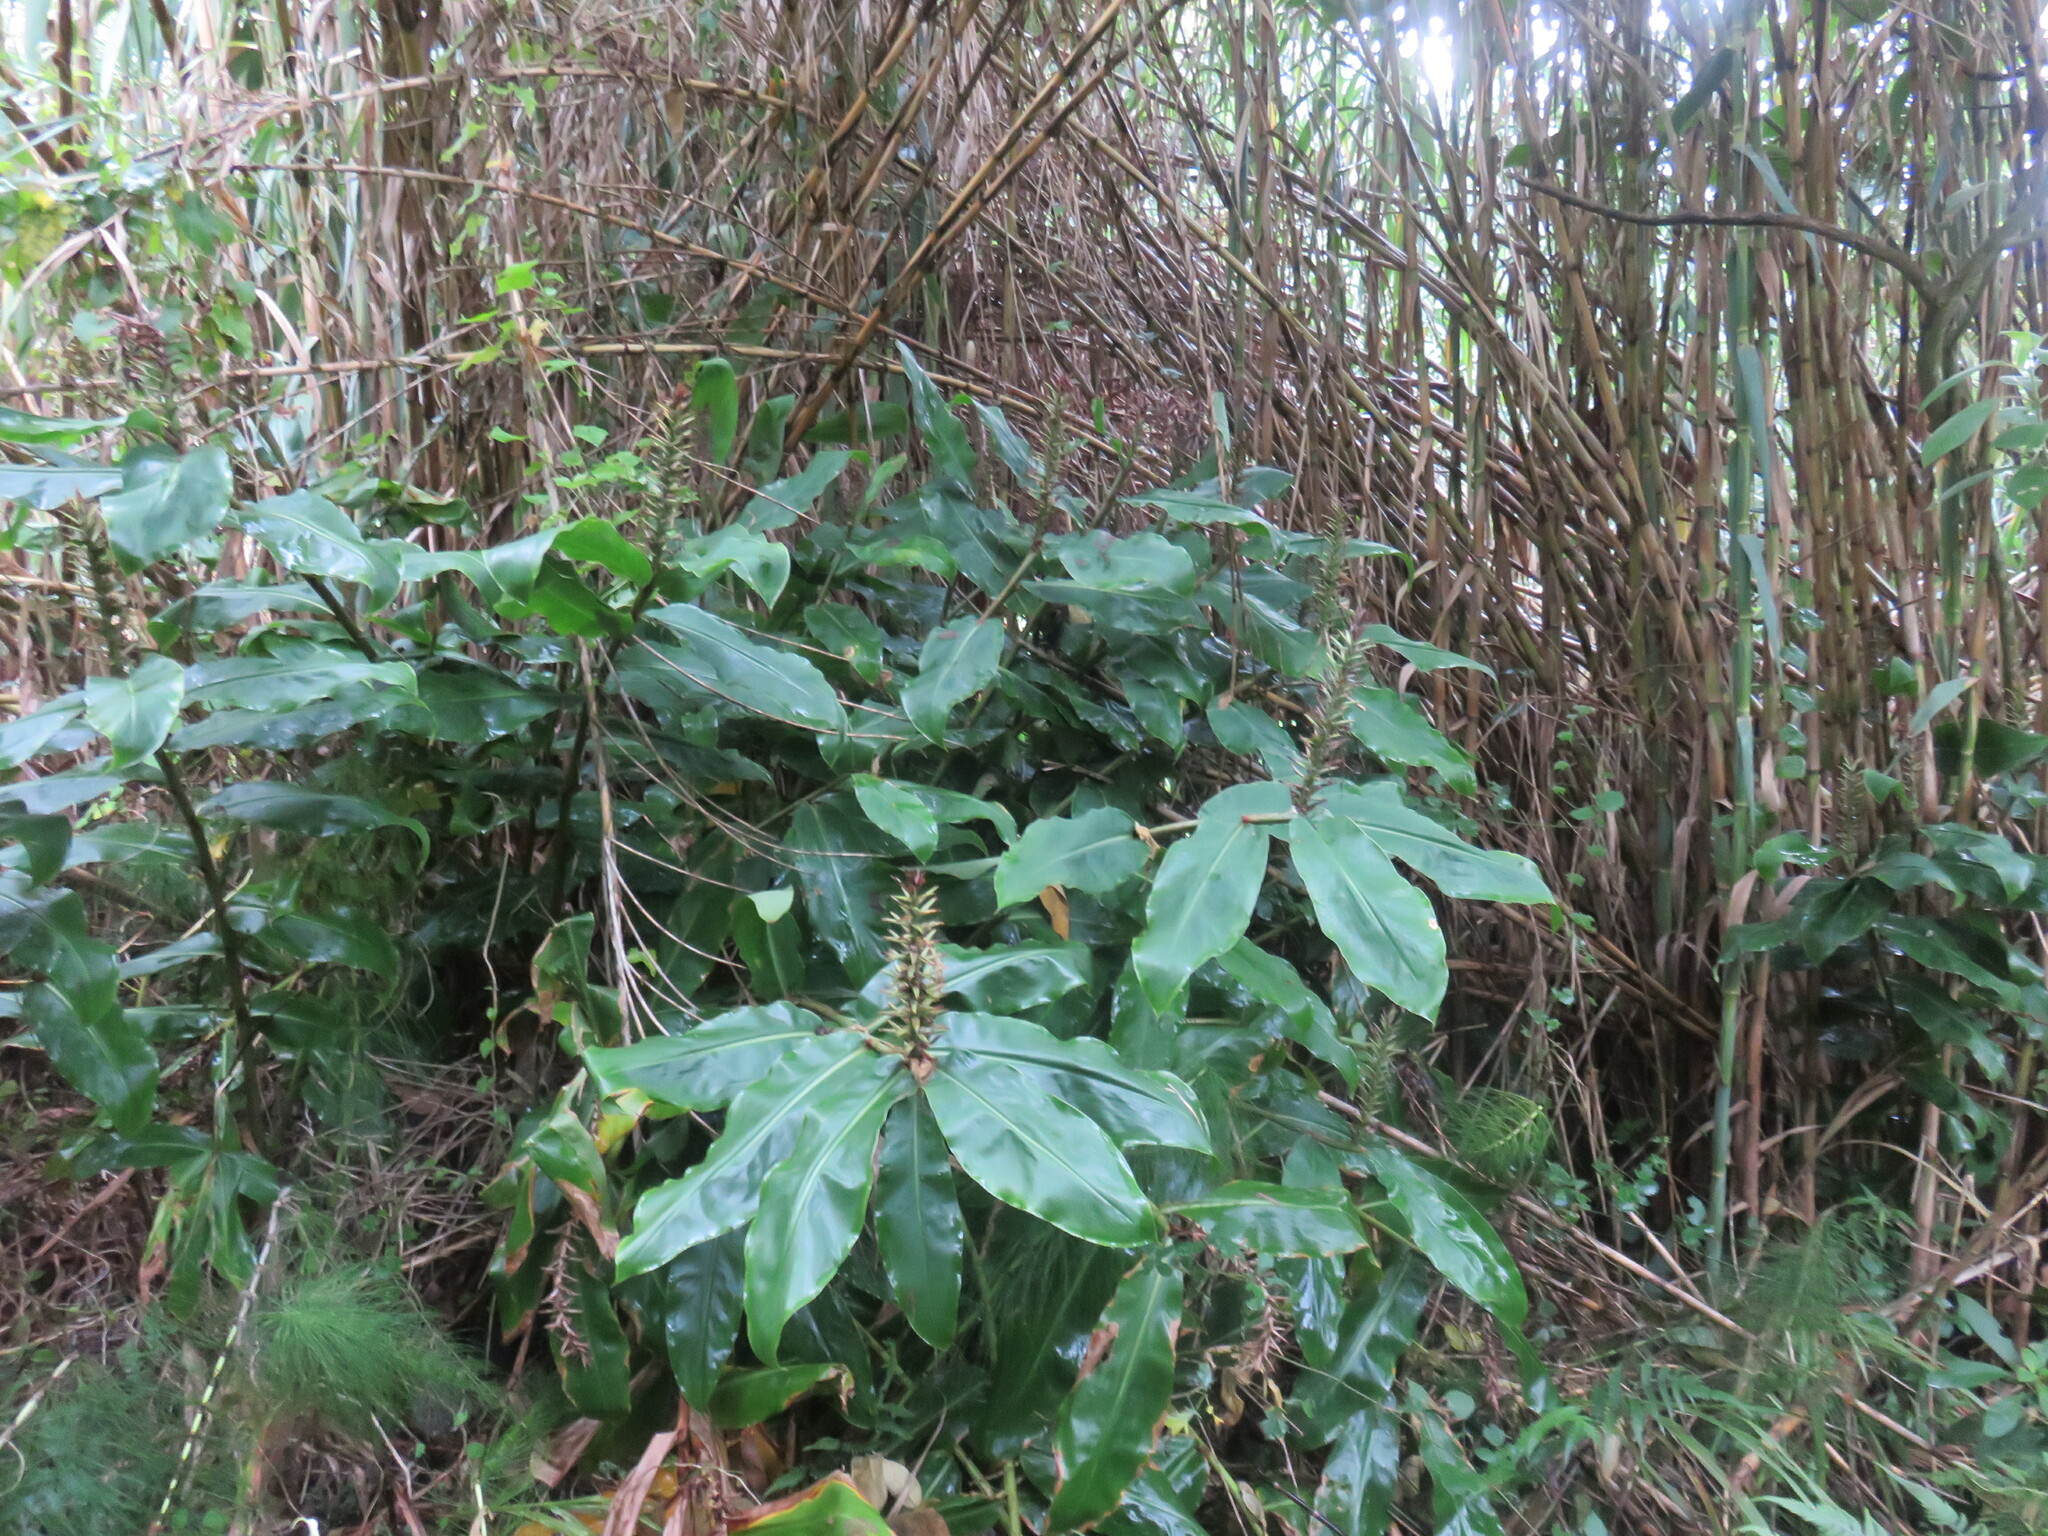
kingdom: Plantae
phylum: Tracheophyta
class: Liliopsida
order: Zingiberales
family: Zingiberaceae
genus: Hedychium
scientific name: Hedychium gardnerianum
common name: Himalayan ginger
